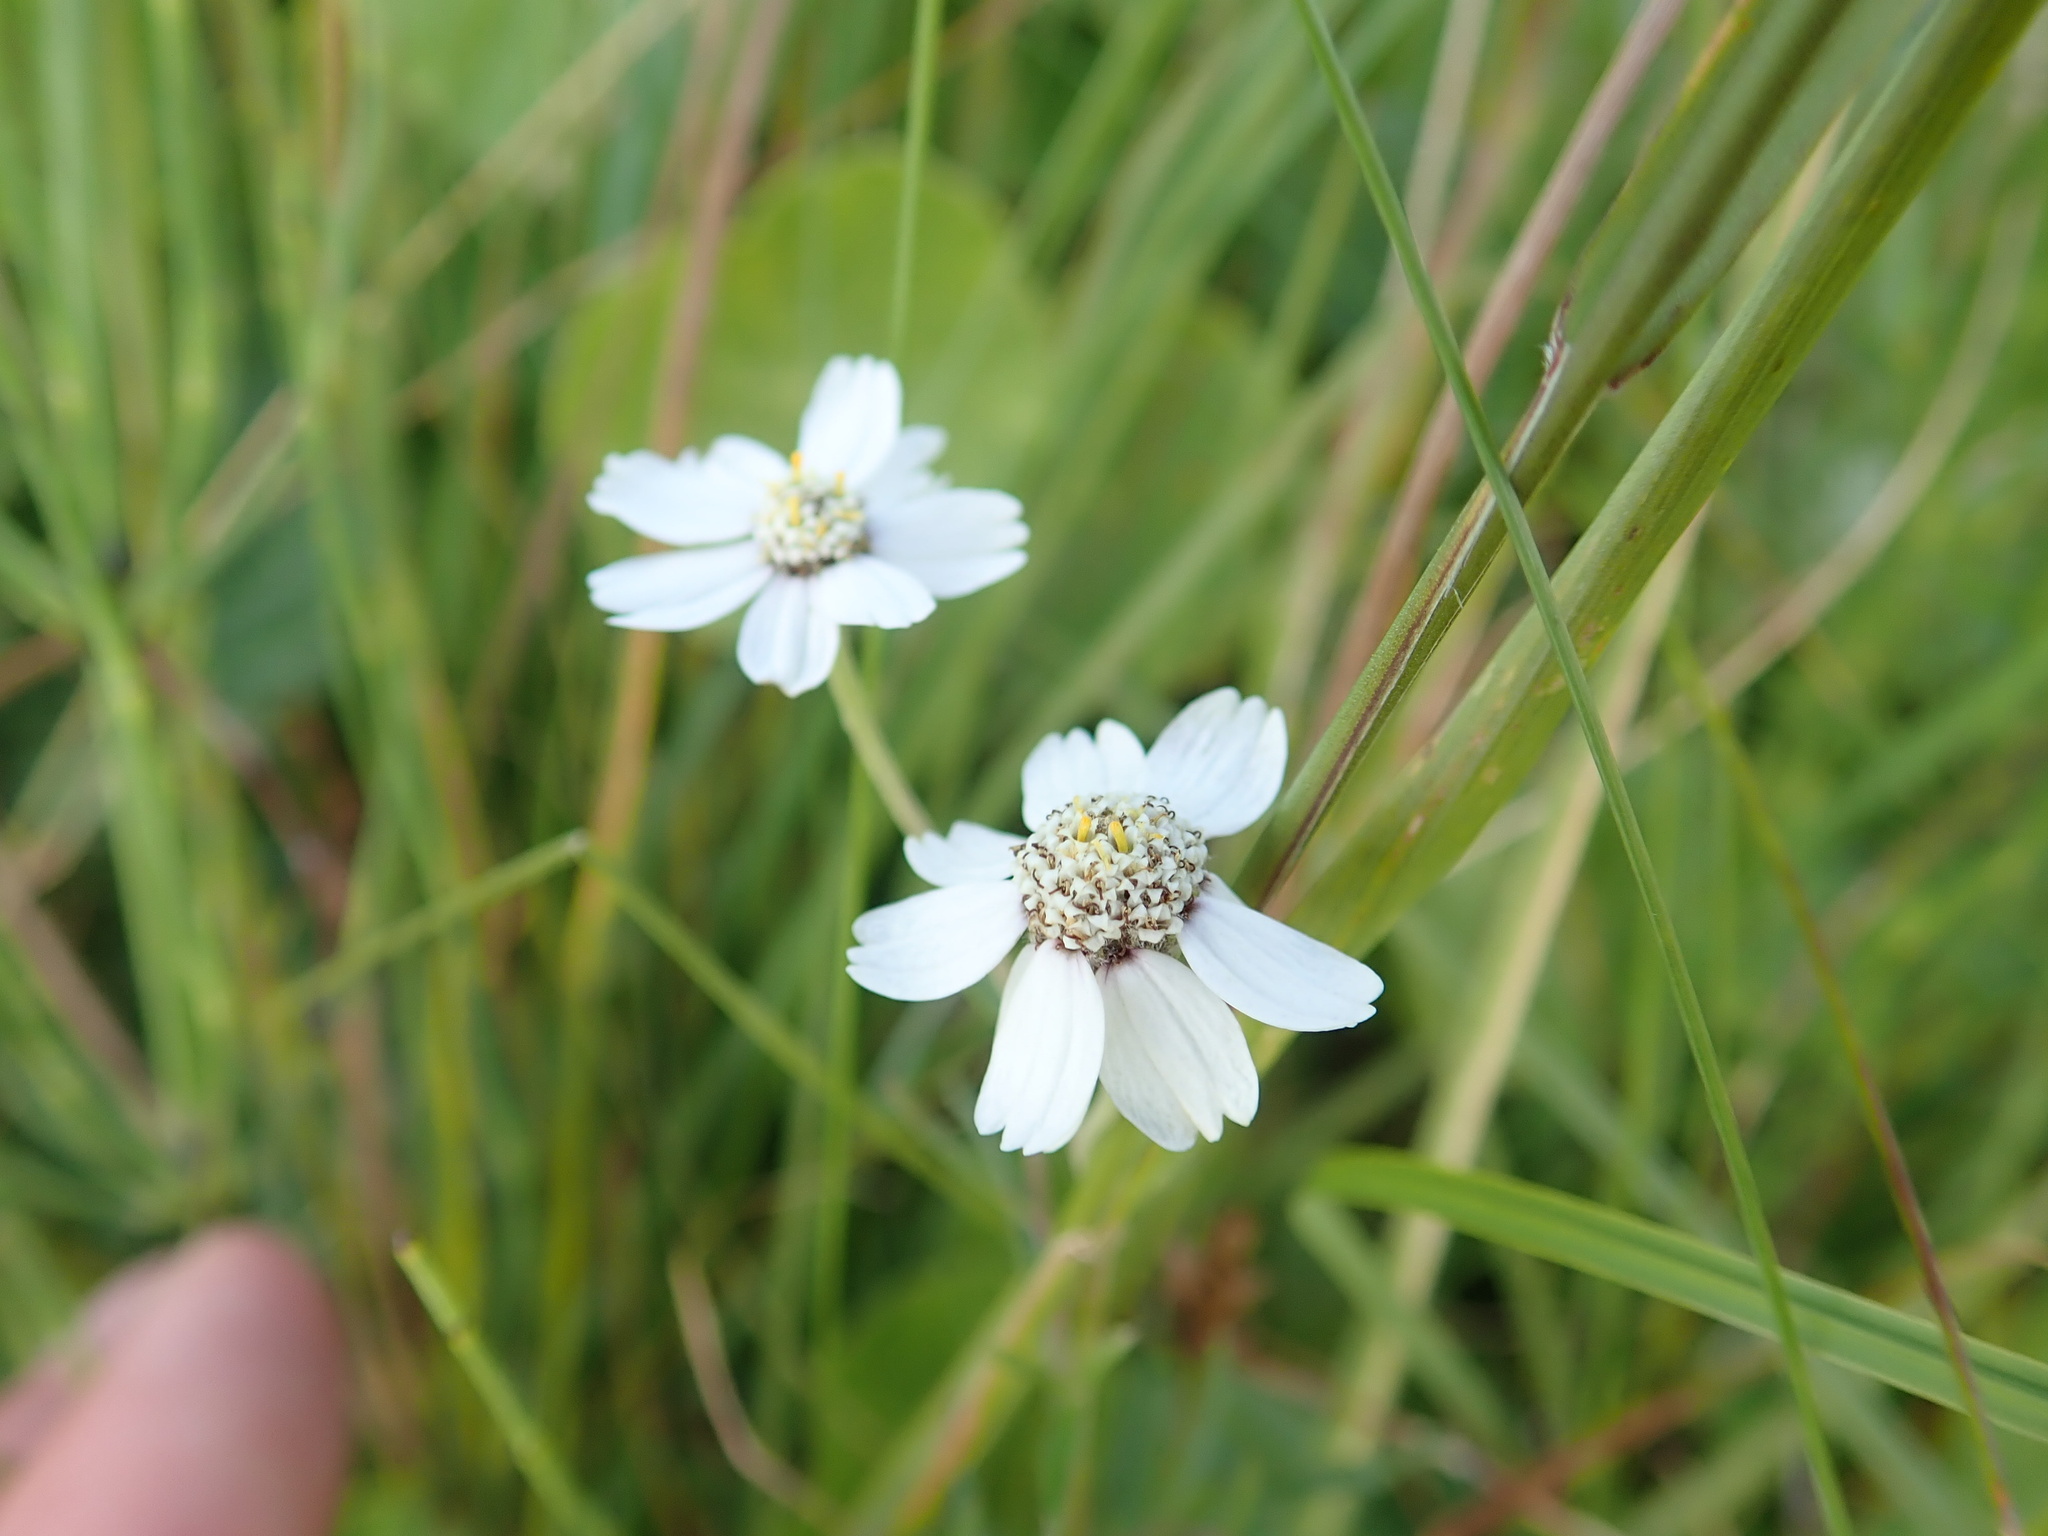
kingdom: Plantae
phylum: Tracheophyta
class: Magnoliopsida
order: Asterales
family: Asteraceae
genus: Achillea
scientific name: Achillea ptarmica
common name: Sneezeweed
